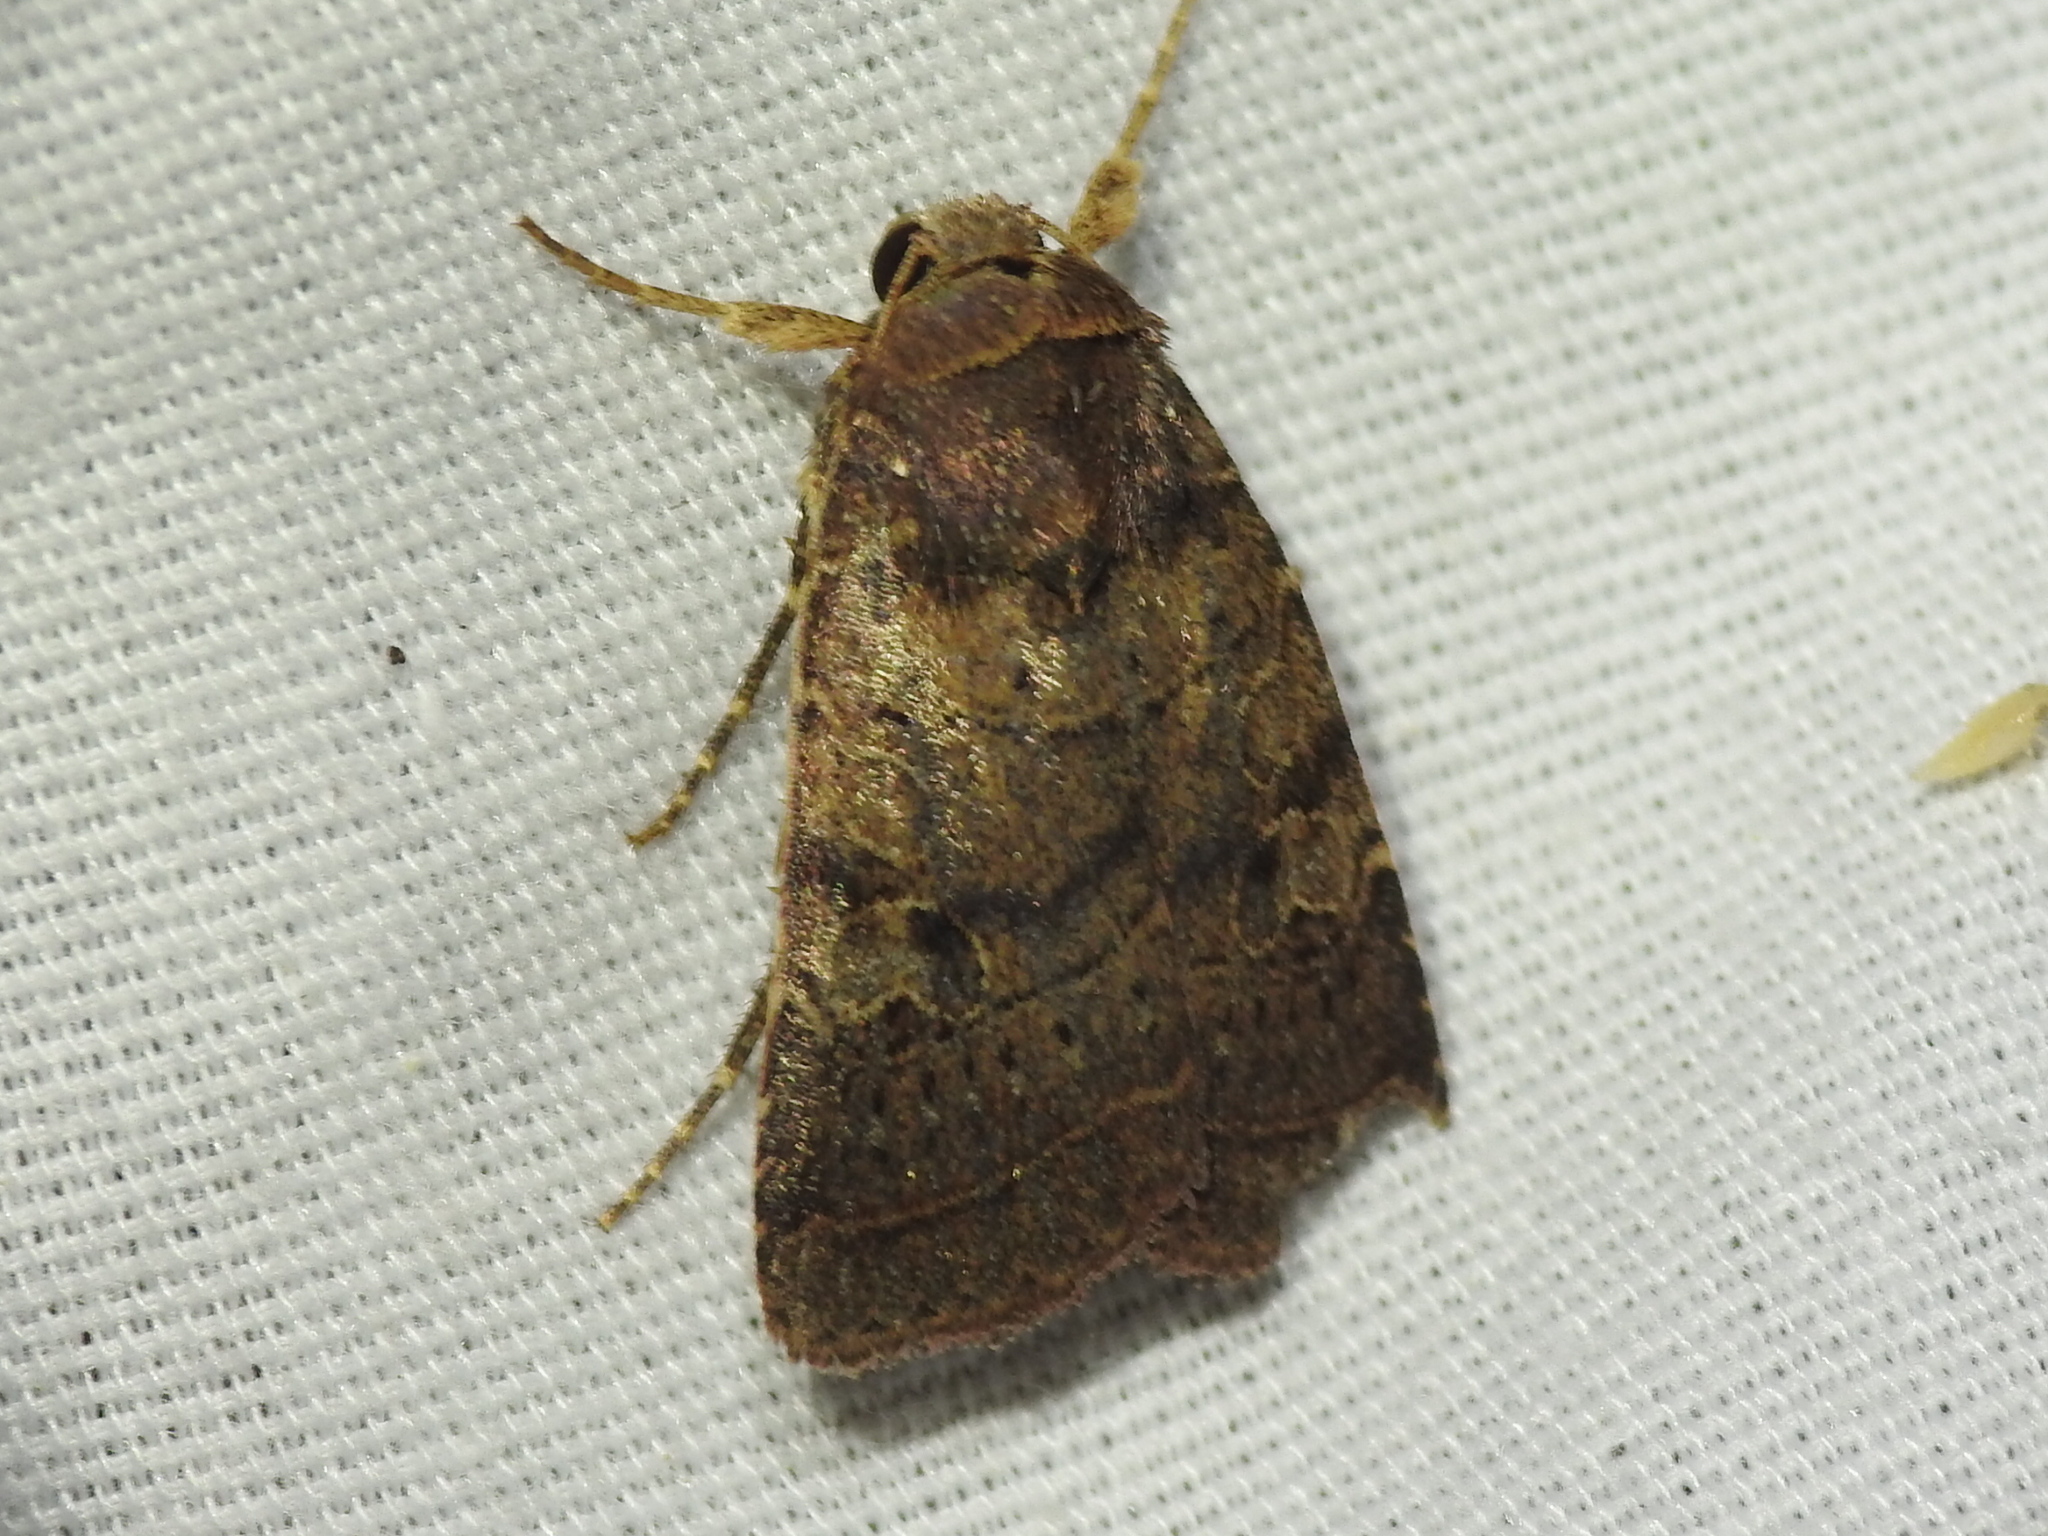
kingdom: Animalia
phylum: Arthropoda
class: Insecta
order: Lepidoptera
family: Noctuidae
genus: Orthodes
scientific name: Orthodes furtiva
